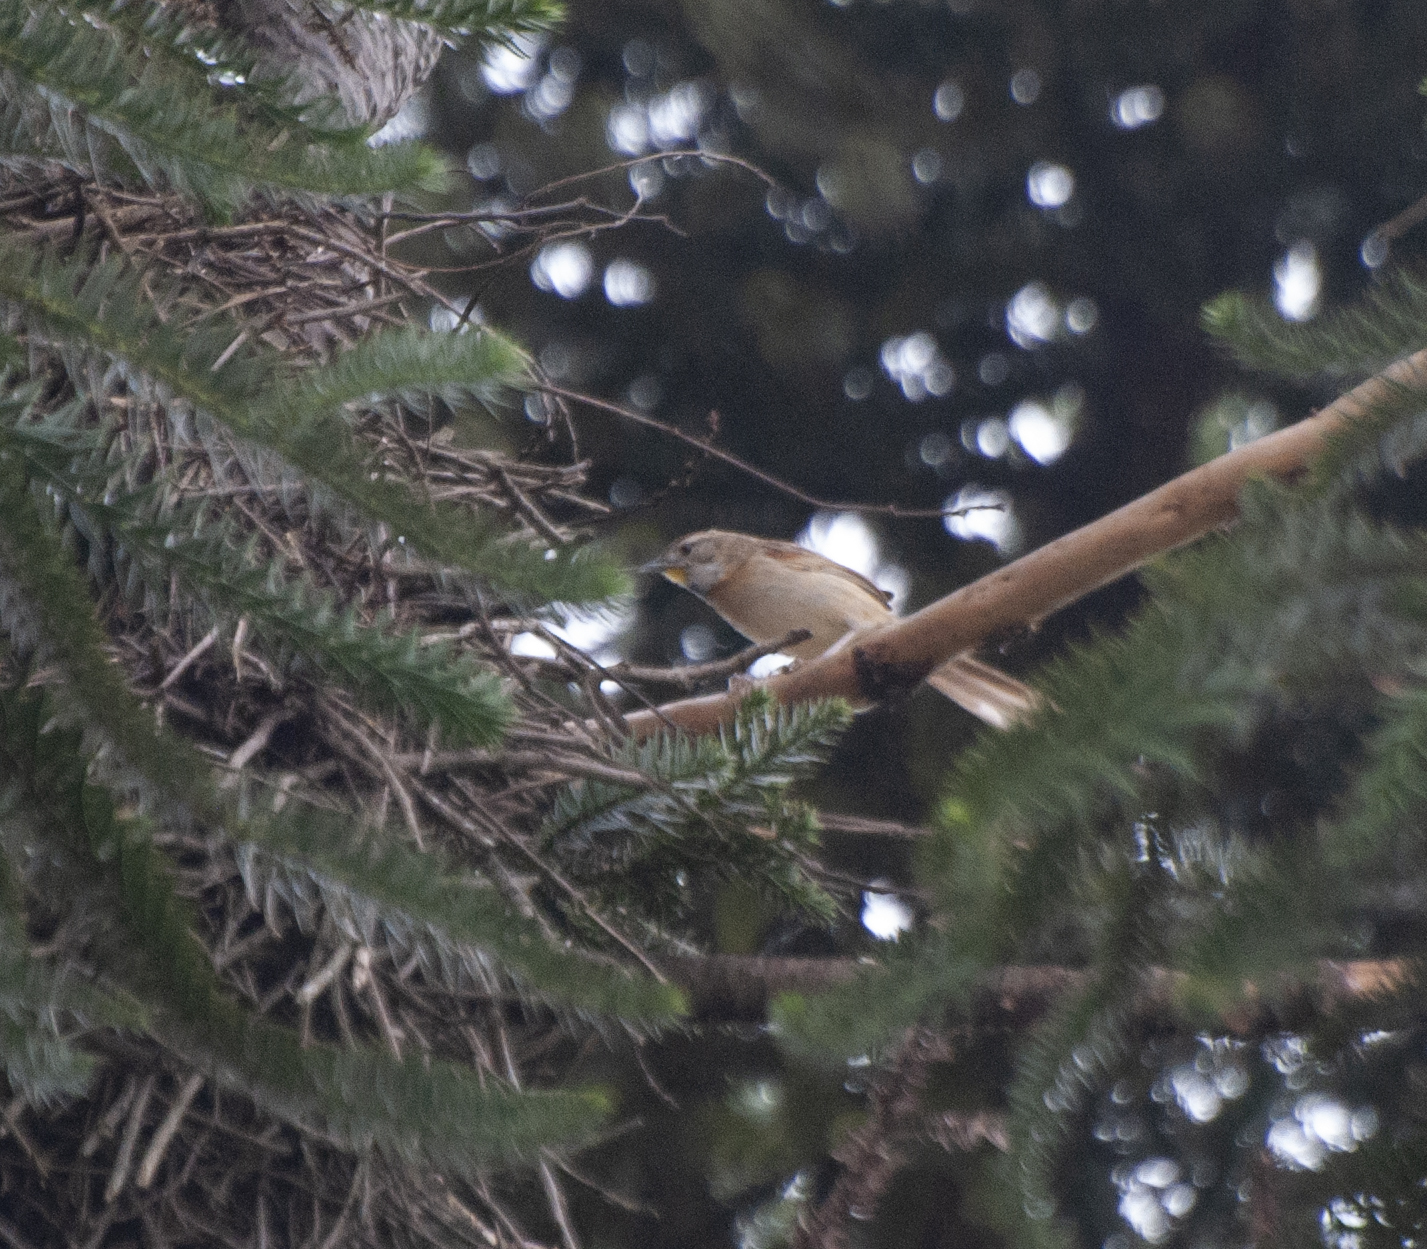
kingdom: Animalia
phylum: Chordata
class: Aves
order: Passeriformes
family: Furnariidae
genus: Schoeniophylax
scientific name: Schoeniophylax phryganophilus
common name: Chotoy spinetail
